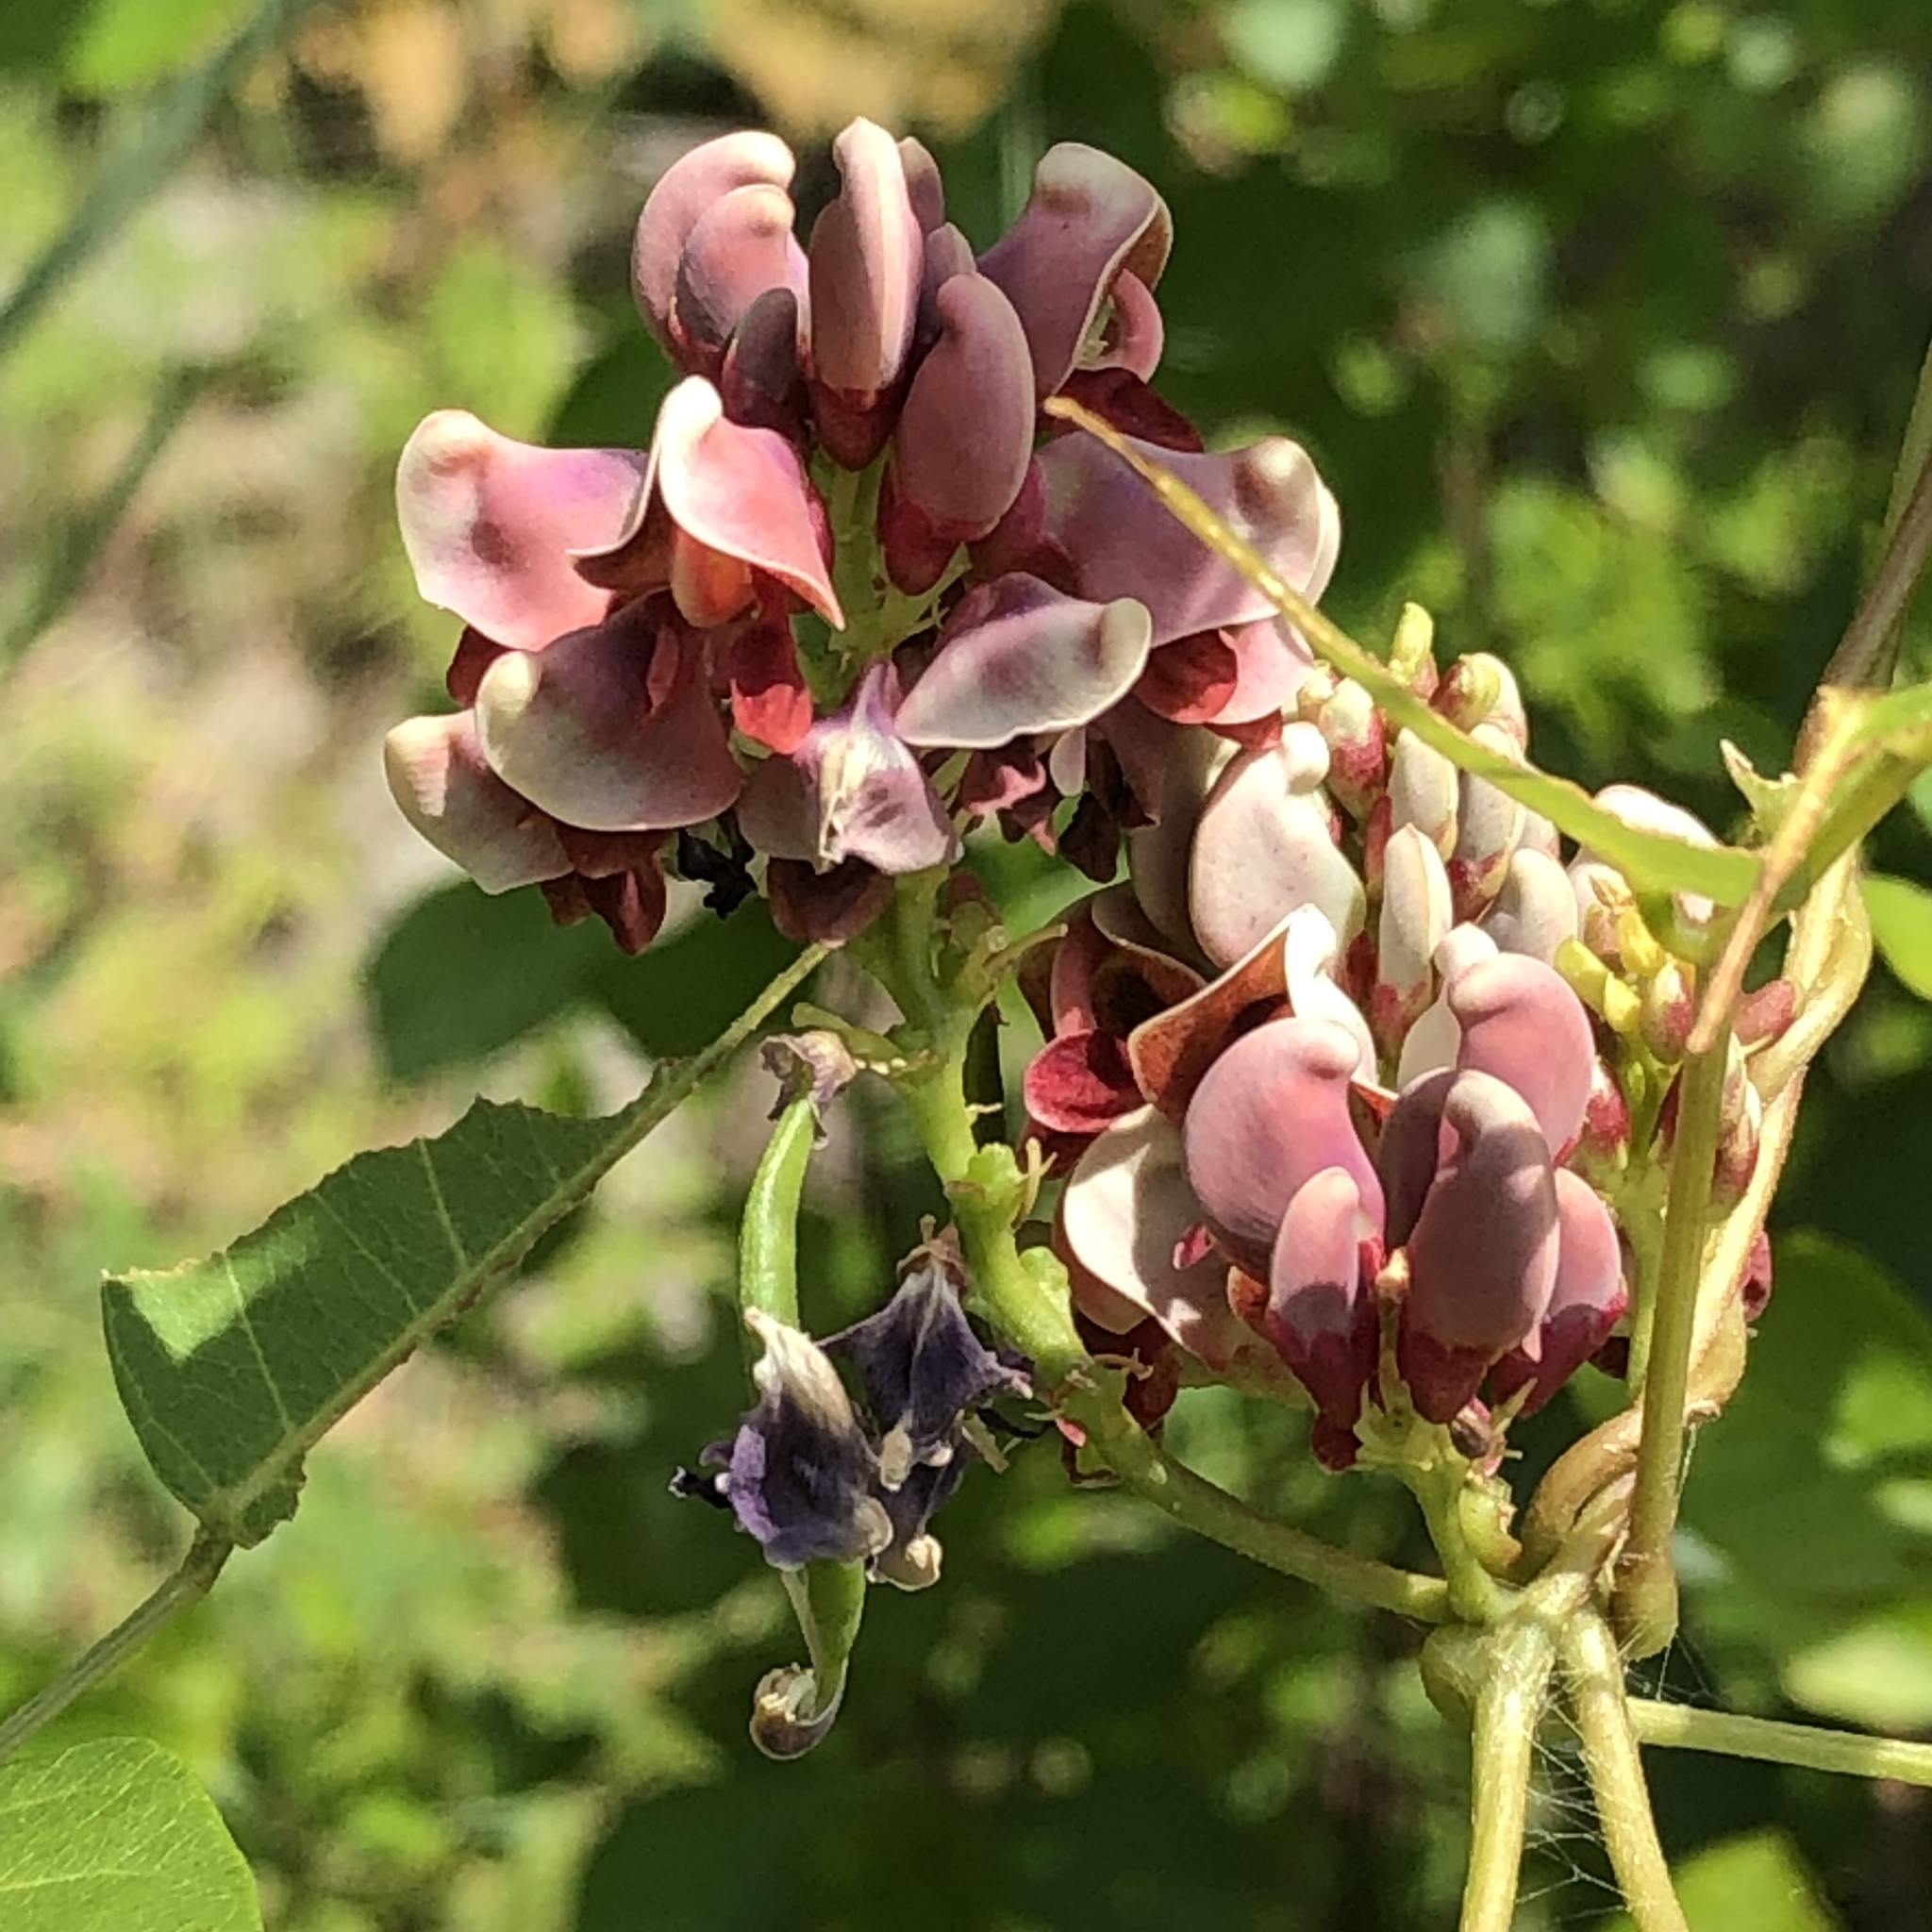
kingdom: Plantae
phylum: Tracheophyta
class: Magnoliopsida
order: Fabales
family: Fabaceae
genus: Apios
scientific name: Apios americana
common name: American potato-bean
